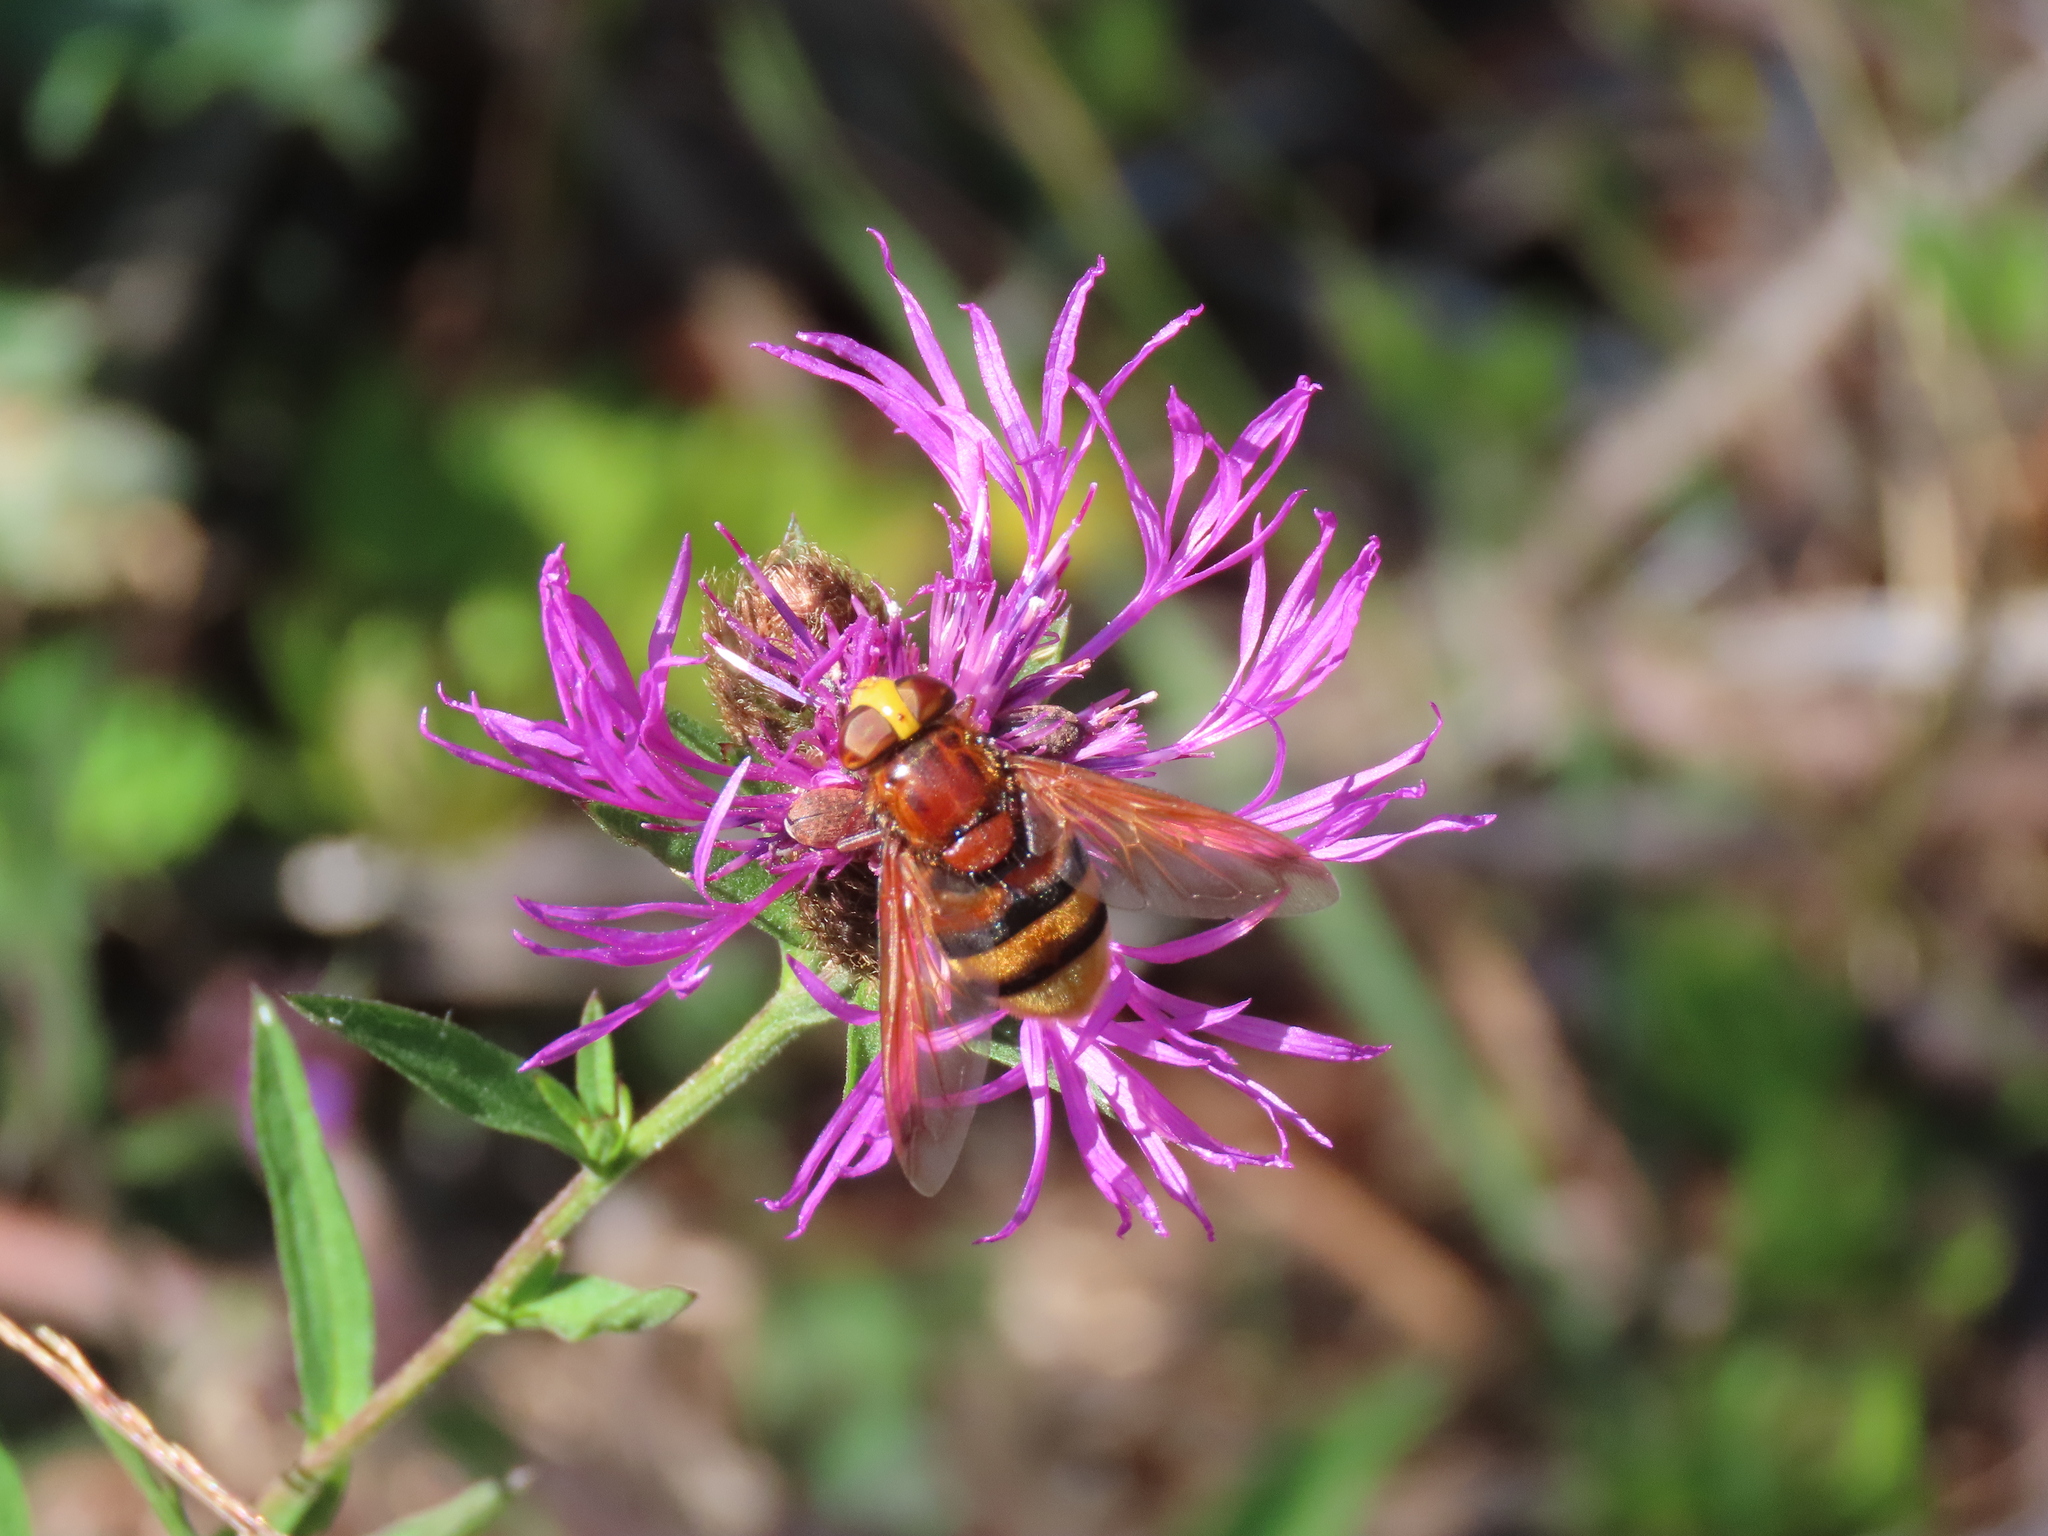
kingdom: Animalia
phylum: Arthropoda
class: Insecta
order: Diptera
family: Syrphidae
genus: Volucella
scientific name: Volucella zonaria
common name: Hornet hoverfly
